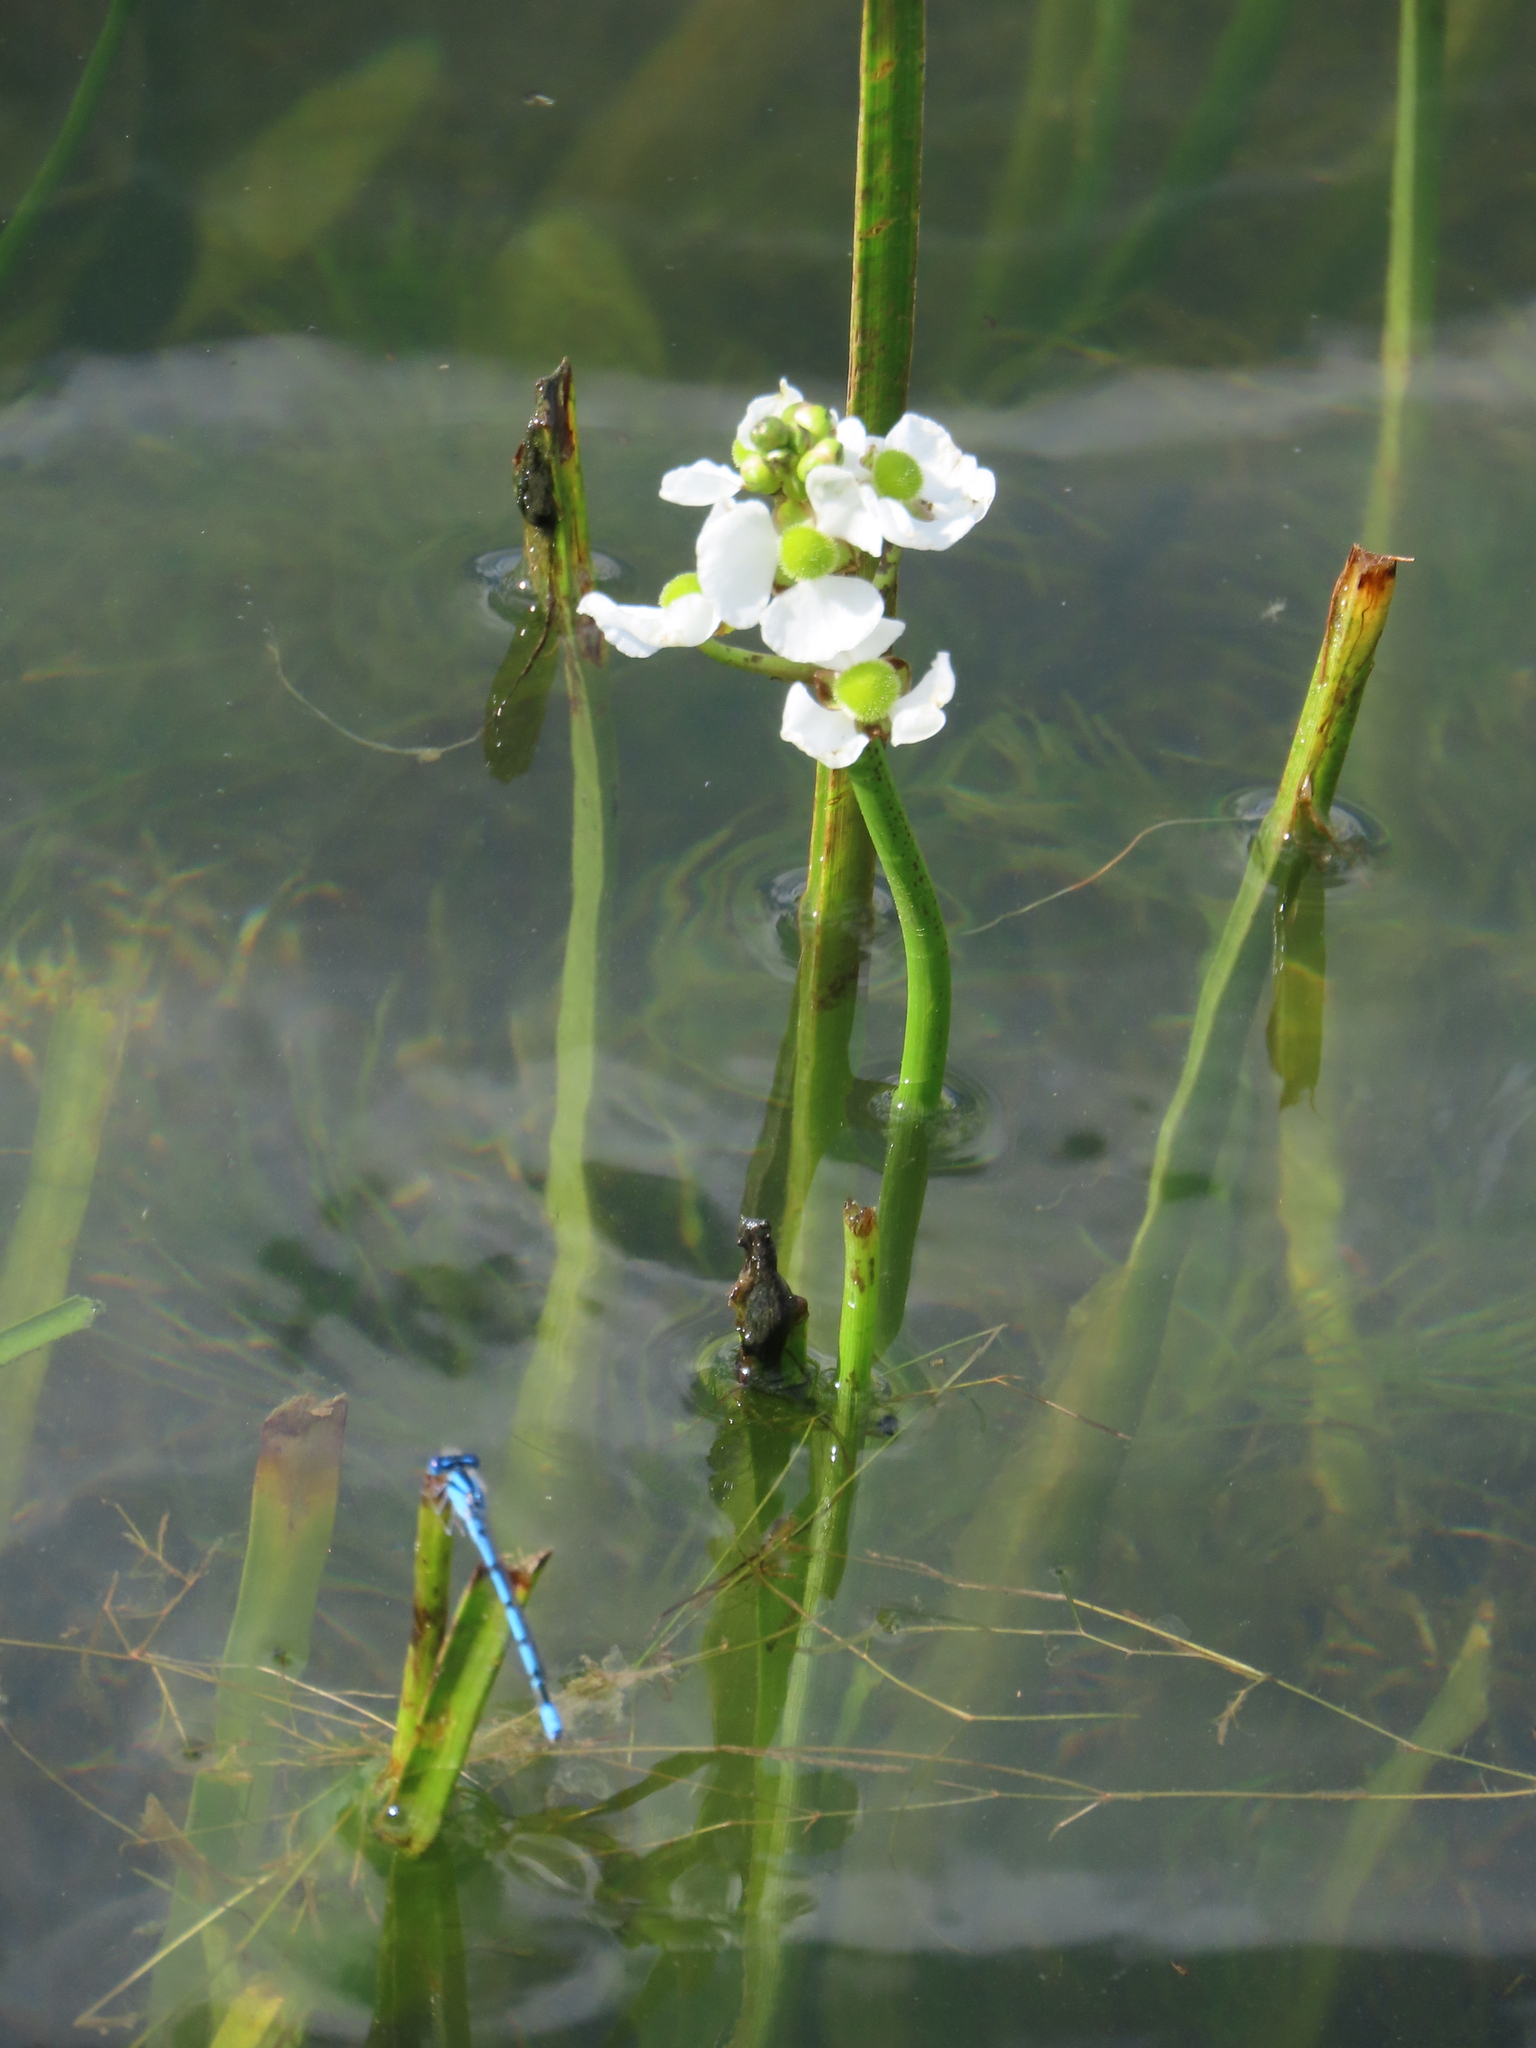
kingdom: Plantae
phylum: Tracheophyta
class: Liliopsida
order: Alismatales
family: Alismataceae
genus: Sagittaria
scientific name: Sagittaria platyphylla
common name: Broad-leaf arrowhead
